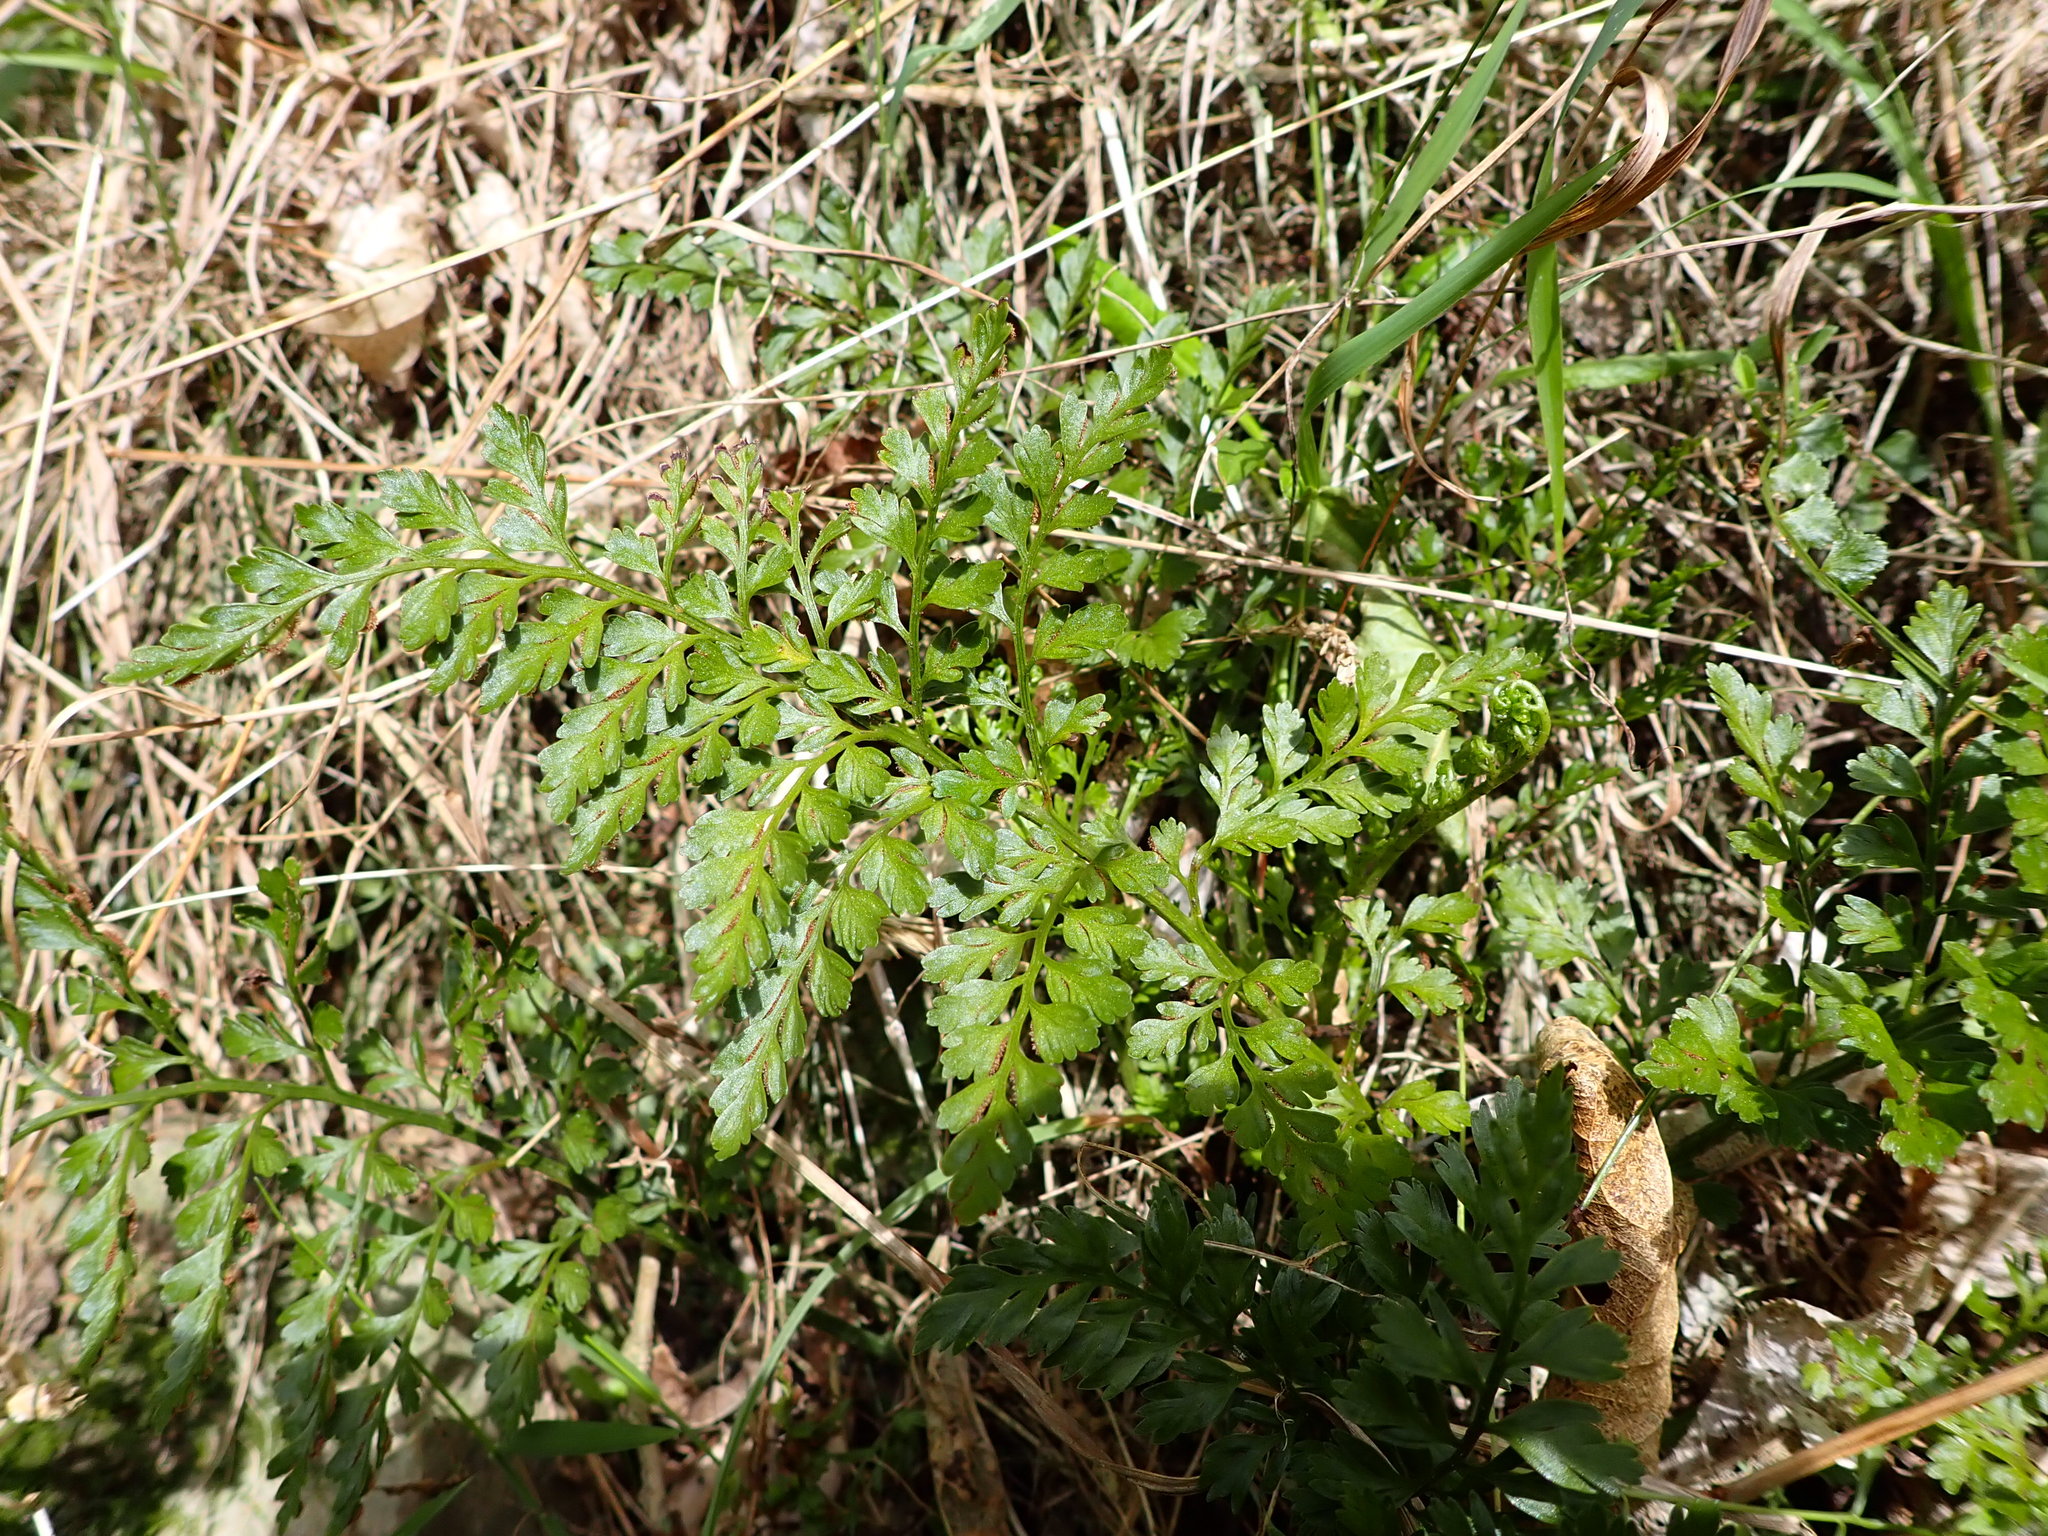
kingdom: Plantae
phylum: Tracheophyta
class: Polypodiopsida
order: Polypodiales
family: Aspleniaceae
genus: Asplenium
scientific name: Asplenium hookerianum
